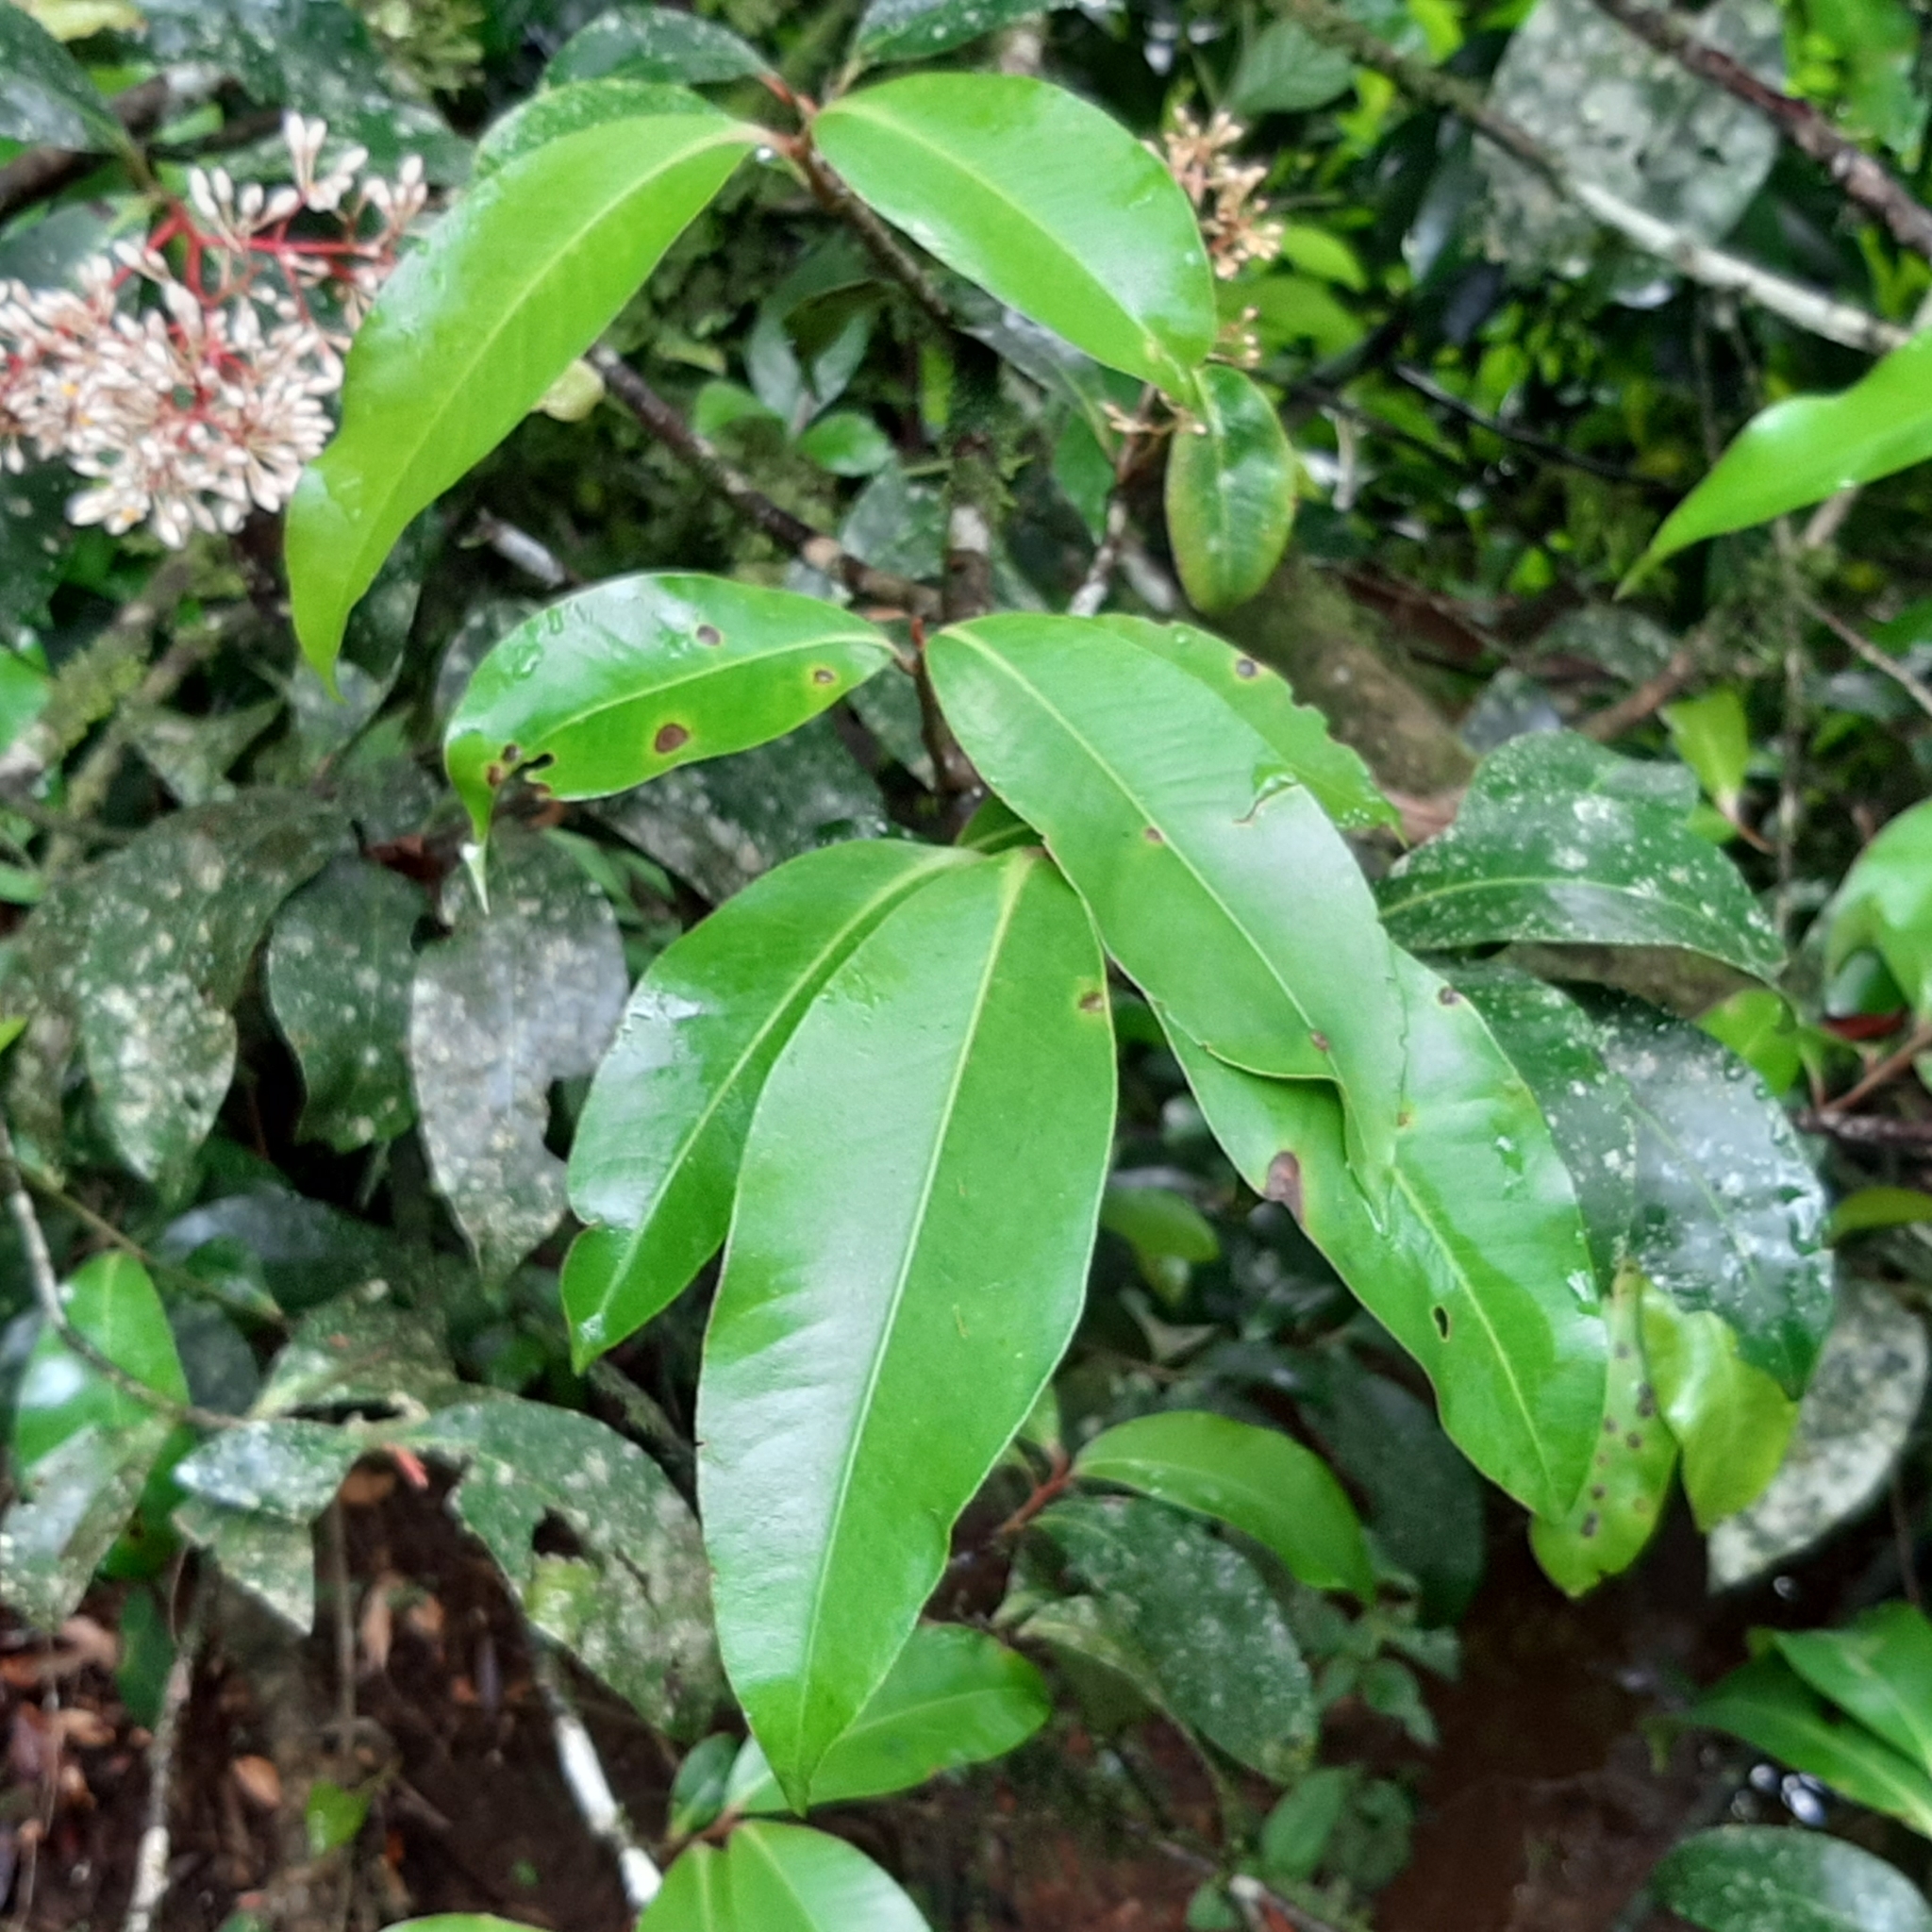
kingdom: Plantae
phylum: Tracheophyta
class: Magnoliopsida
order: Ericales
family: Primulaceae
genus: Ardisia
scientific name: Ardisia compressa
